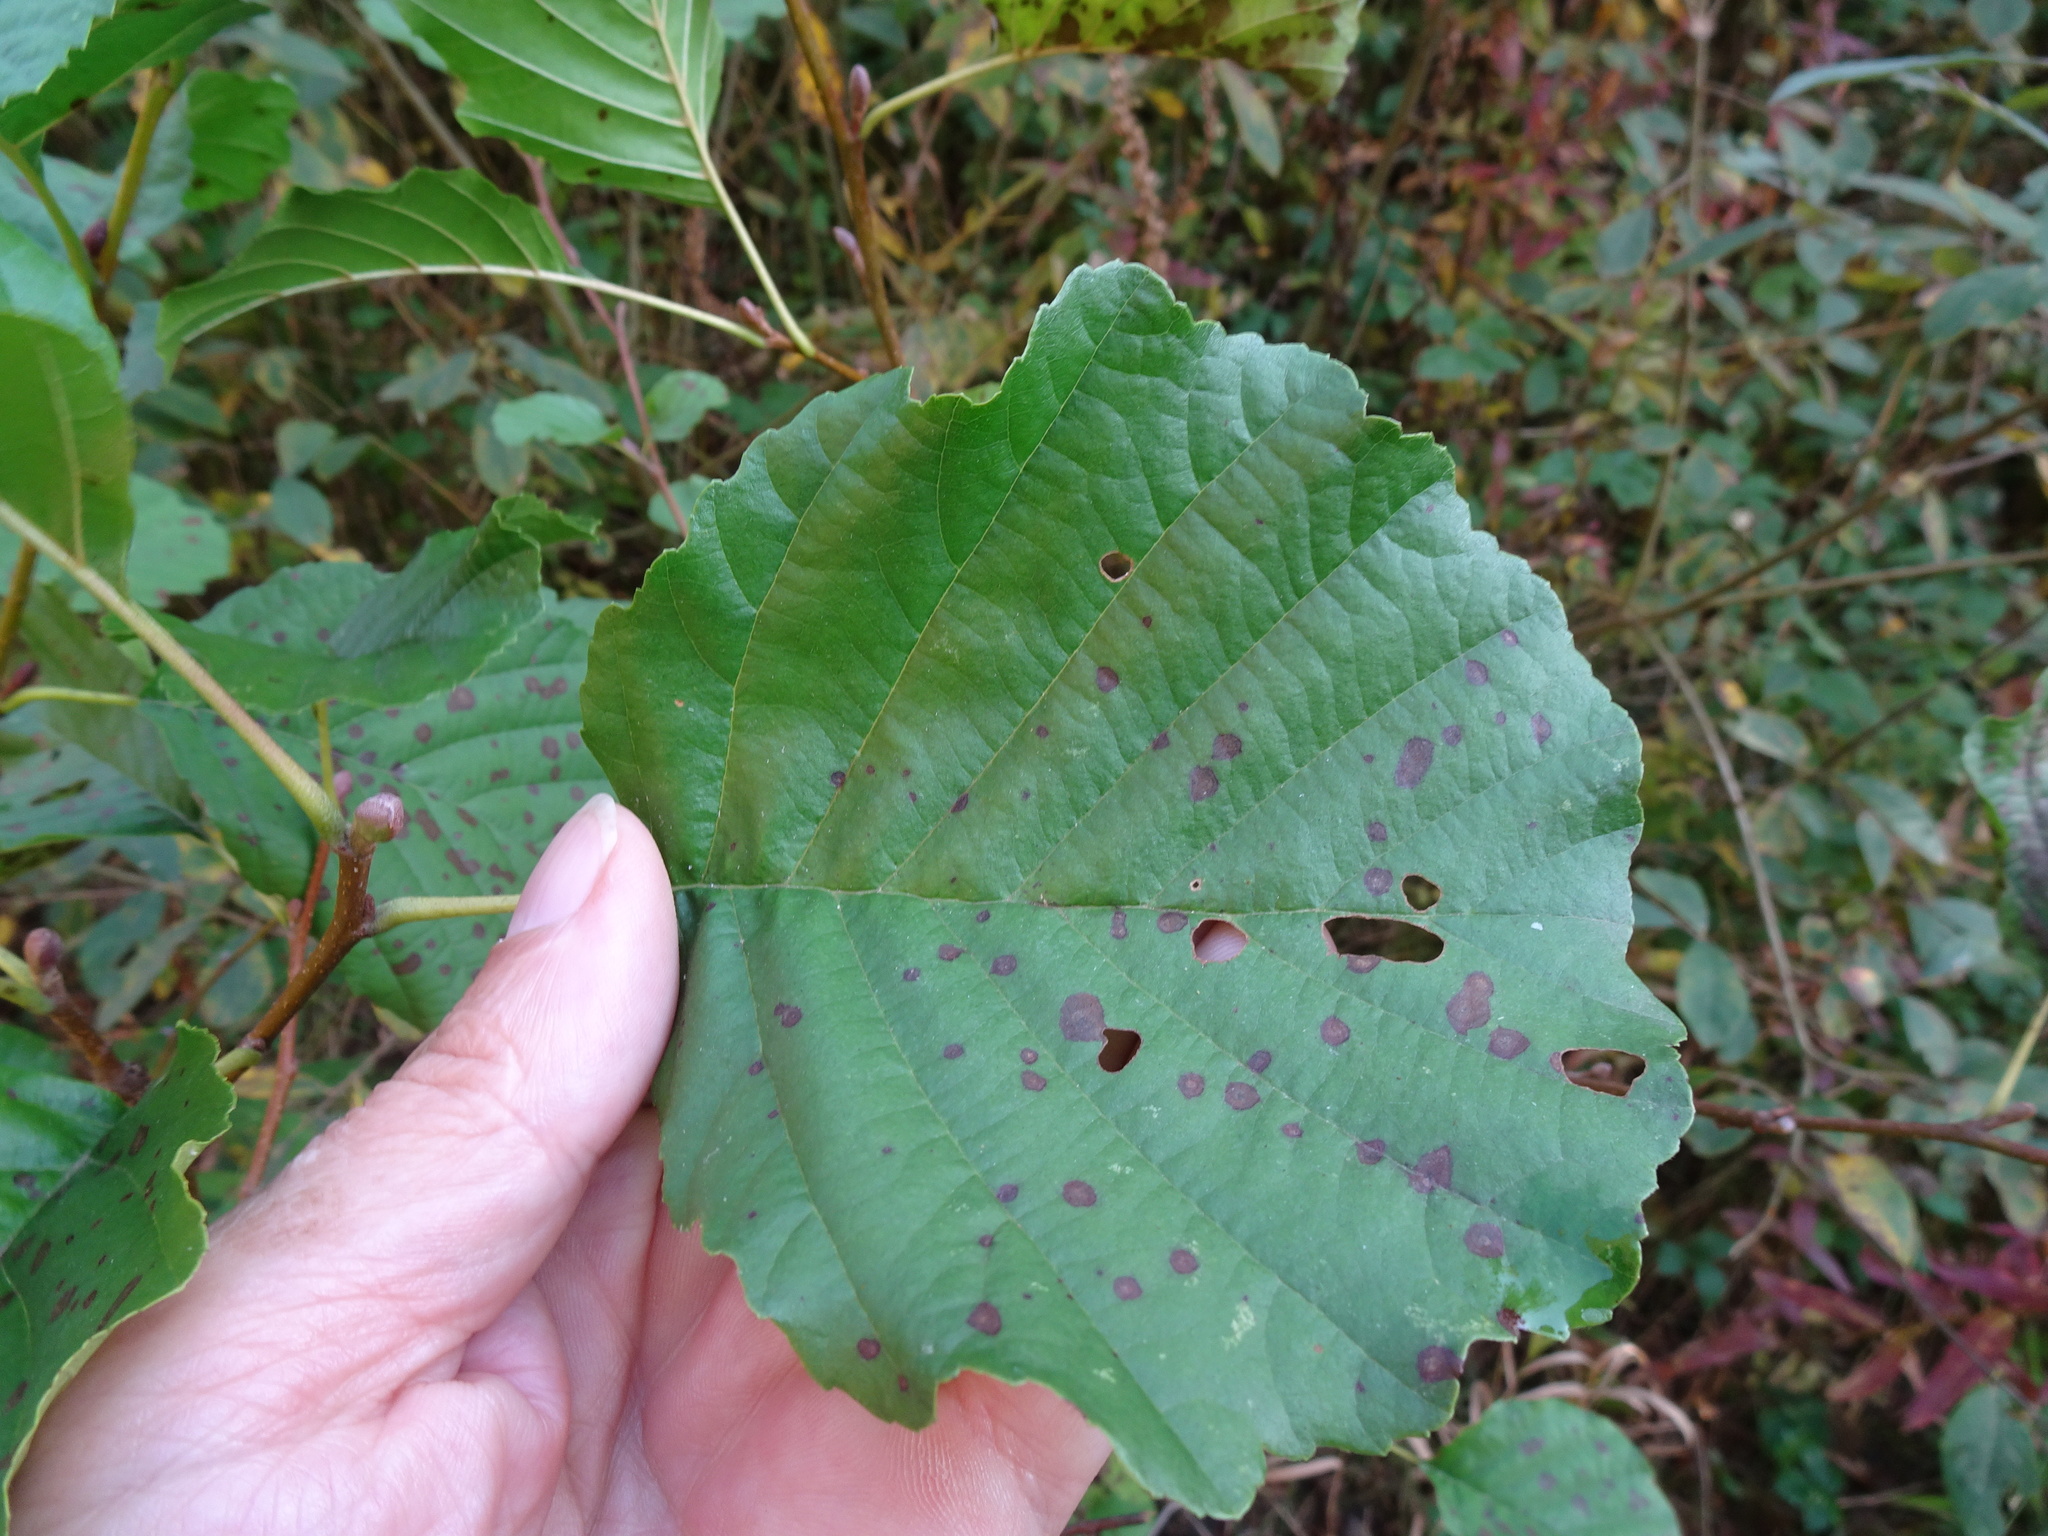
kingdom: Plantae
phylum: Tracheophyta
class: Magnoliopsida
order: Fagales
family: Betulaceae
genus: Alnus
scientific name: Alnus glutinosa
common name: Black alder
